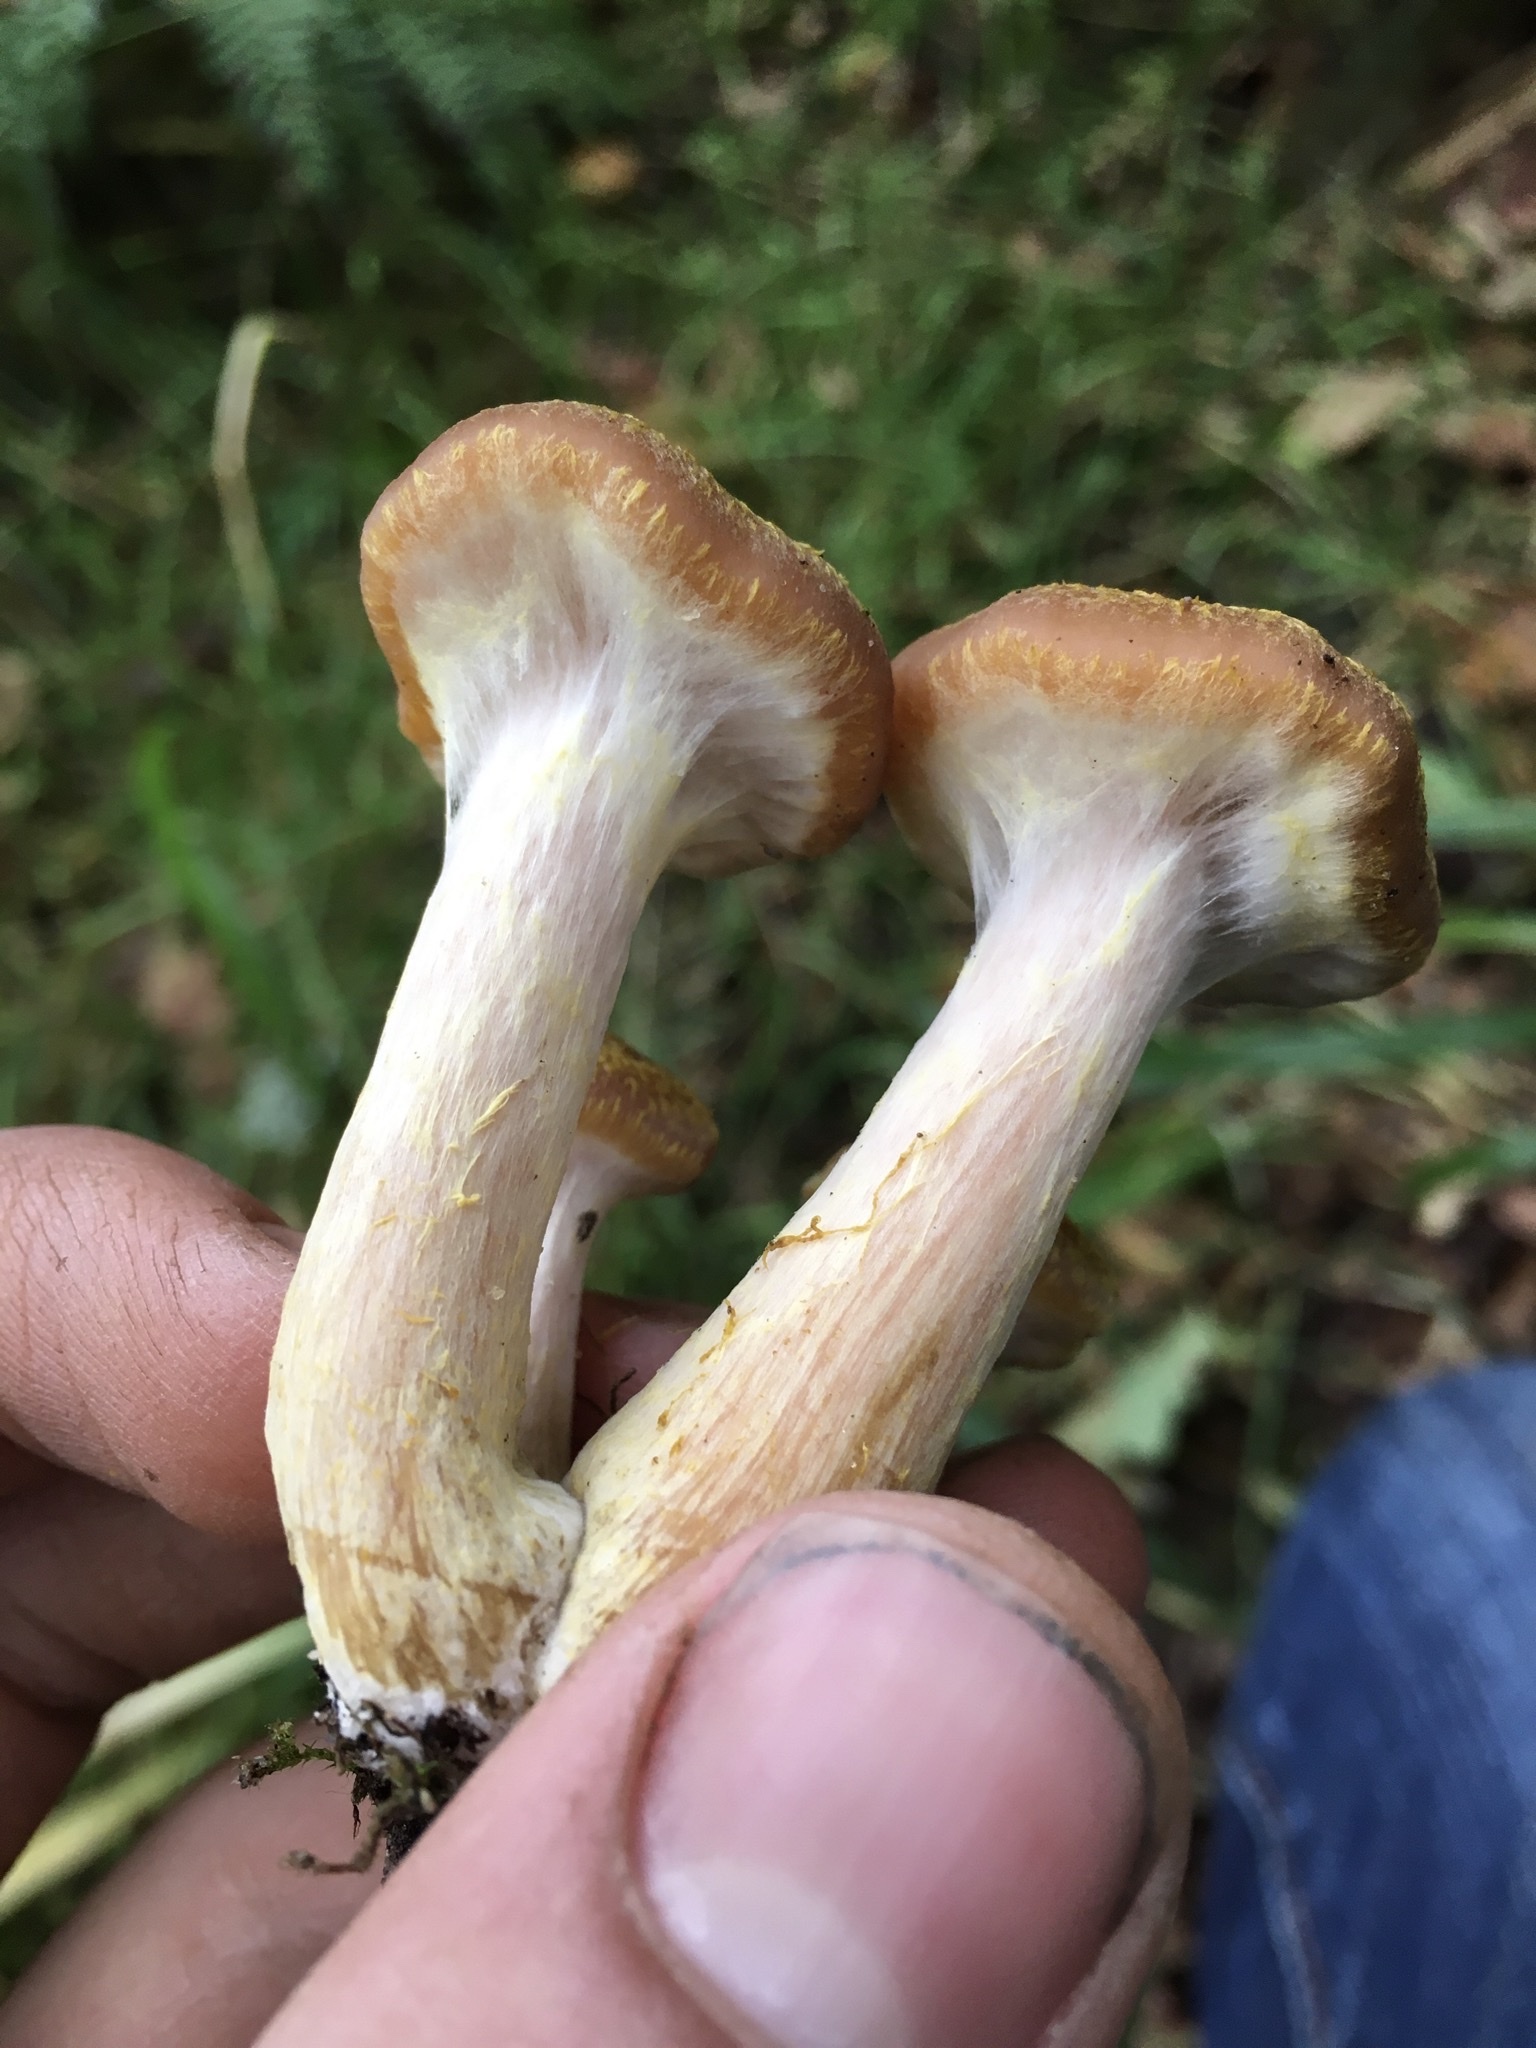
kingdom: Fungi
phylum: Basidiomycota
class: Agaricomycetes
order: Agaricales
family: Physalacriaceae
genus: Armillaria
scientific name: Armillaria gallica
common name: Bulbous honey fungus
